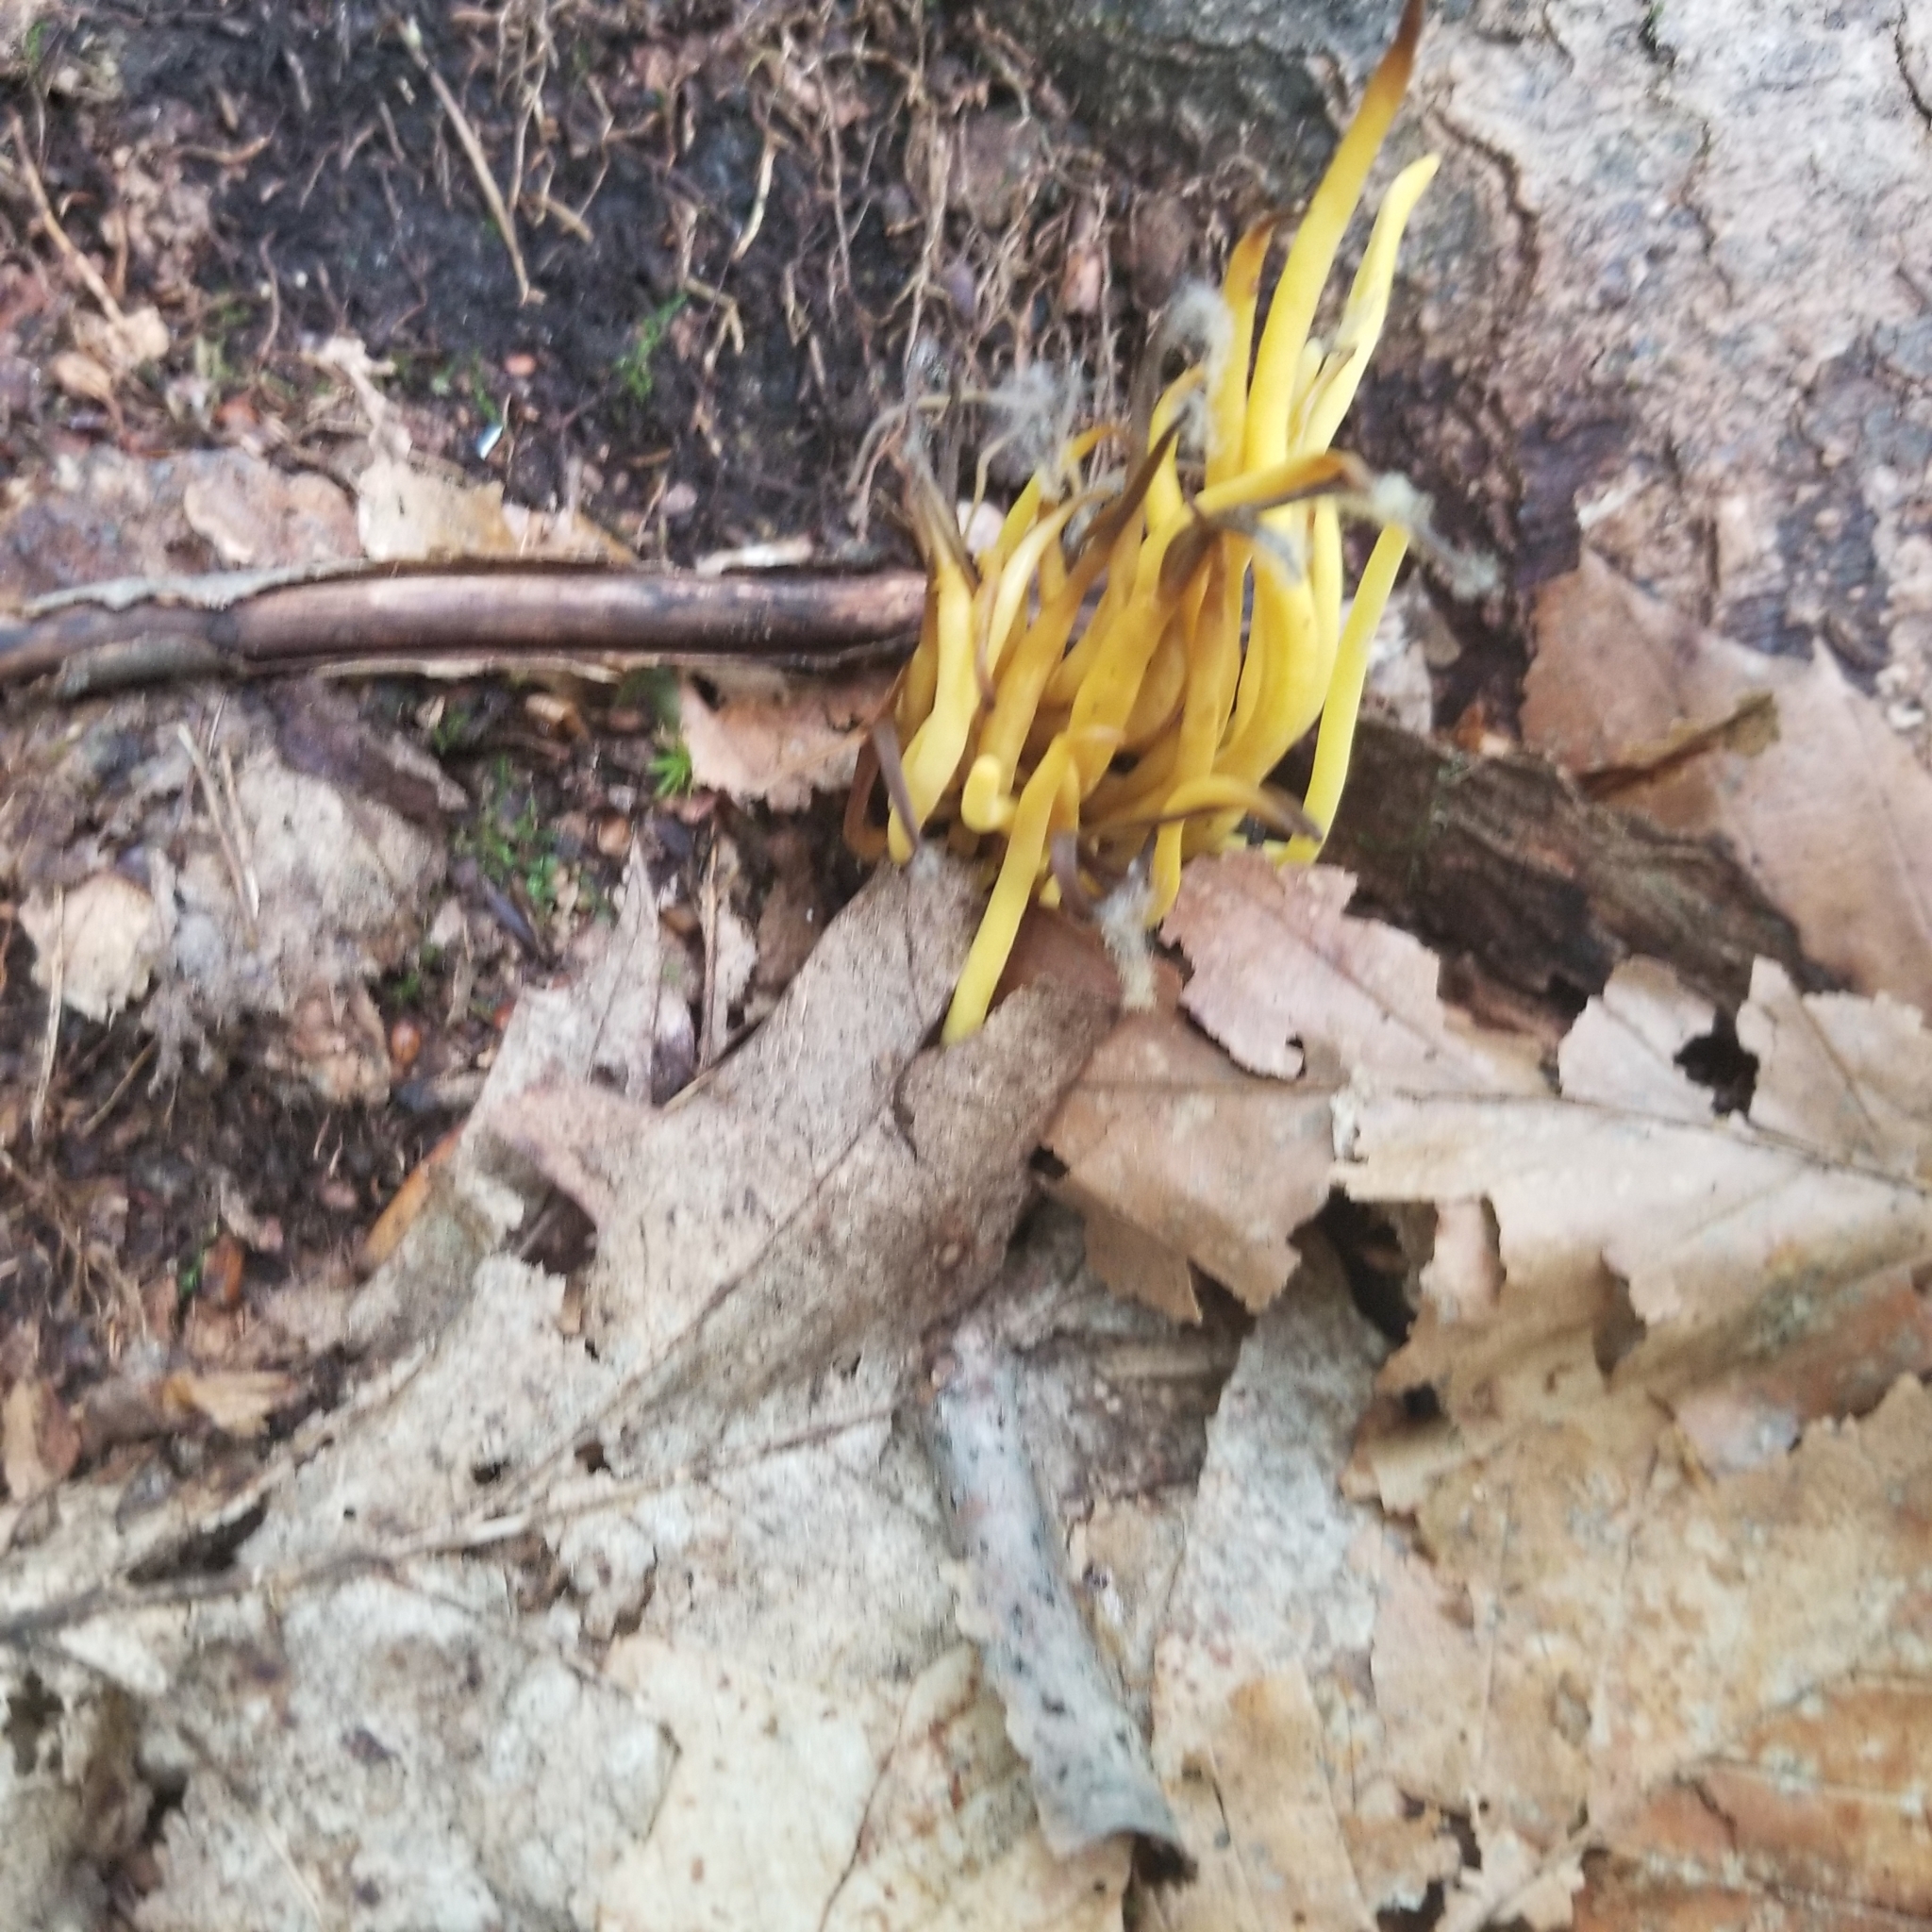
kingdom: Fungi
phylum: Basidiomycota
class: Agaricomycetes
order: Agaricales
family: Clavariaceae
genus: Clavulinopsis
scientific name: Clavulinopsis fusiformis
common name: Golden spindles
